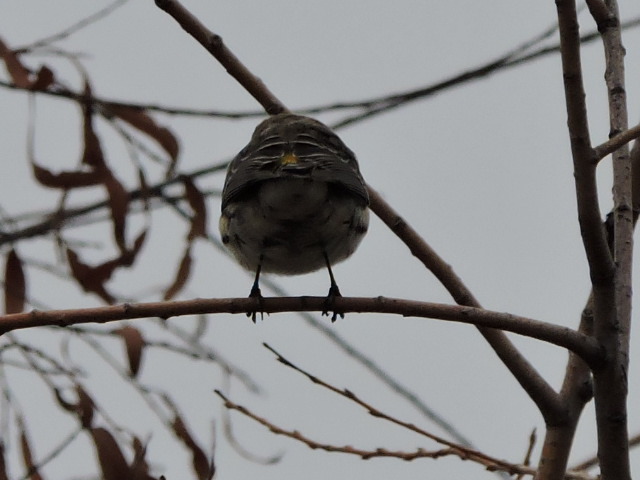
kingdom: Animalia
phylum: Chordata
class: Aves
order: Passeriformes
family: Parulidae
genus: Setophaga
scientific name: Setophaga coronata
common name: Myrtle warbler
